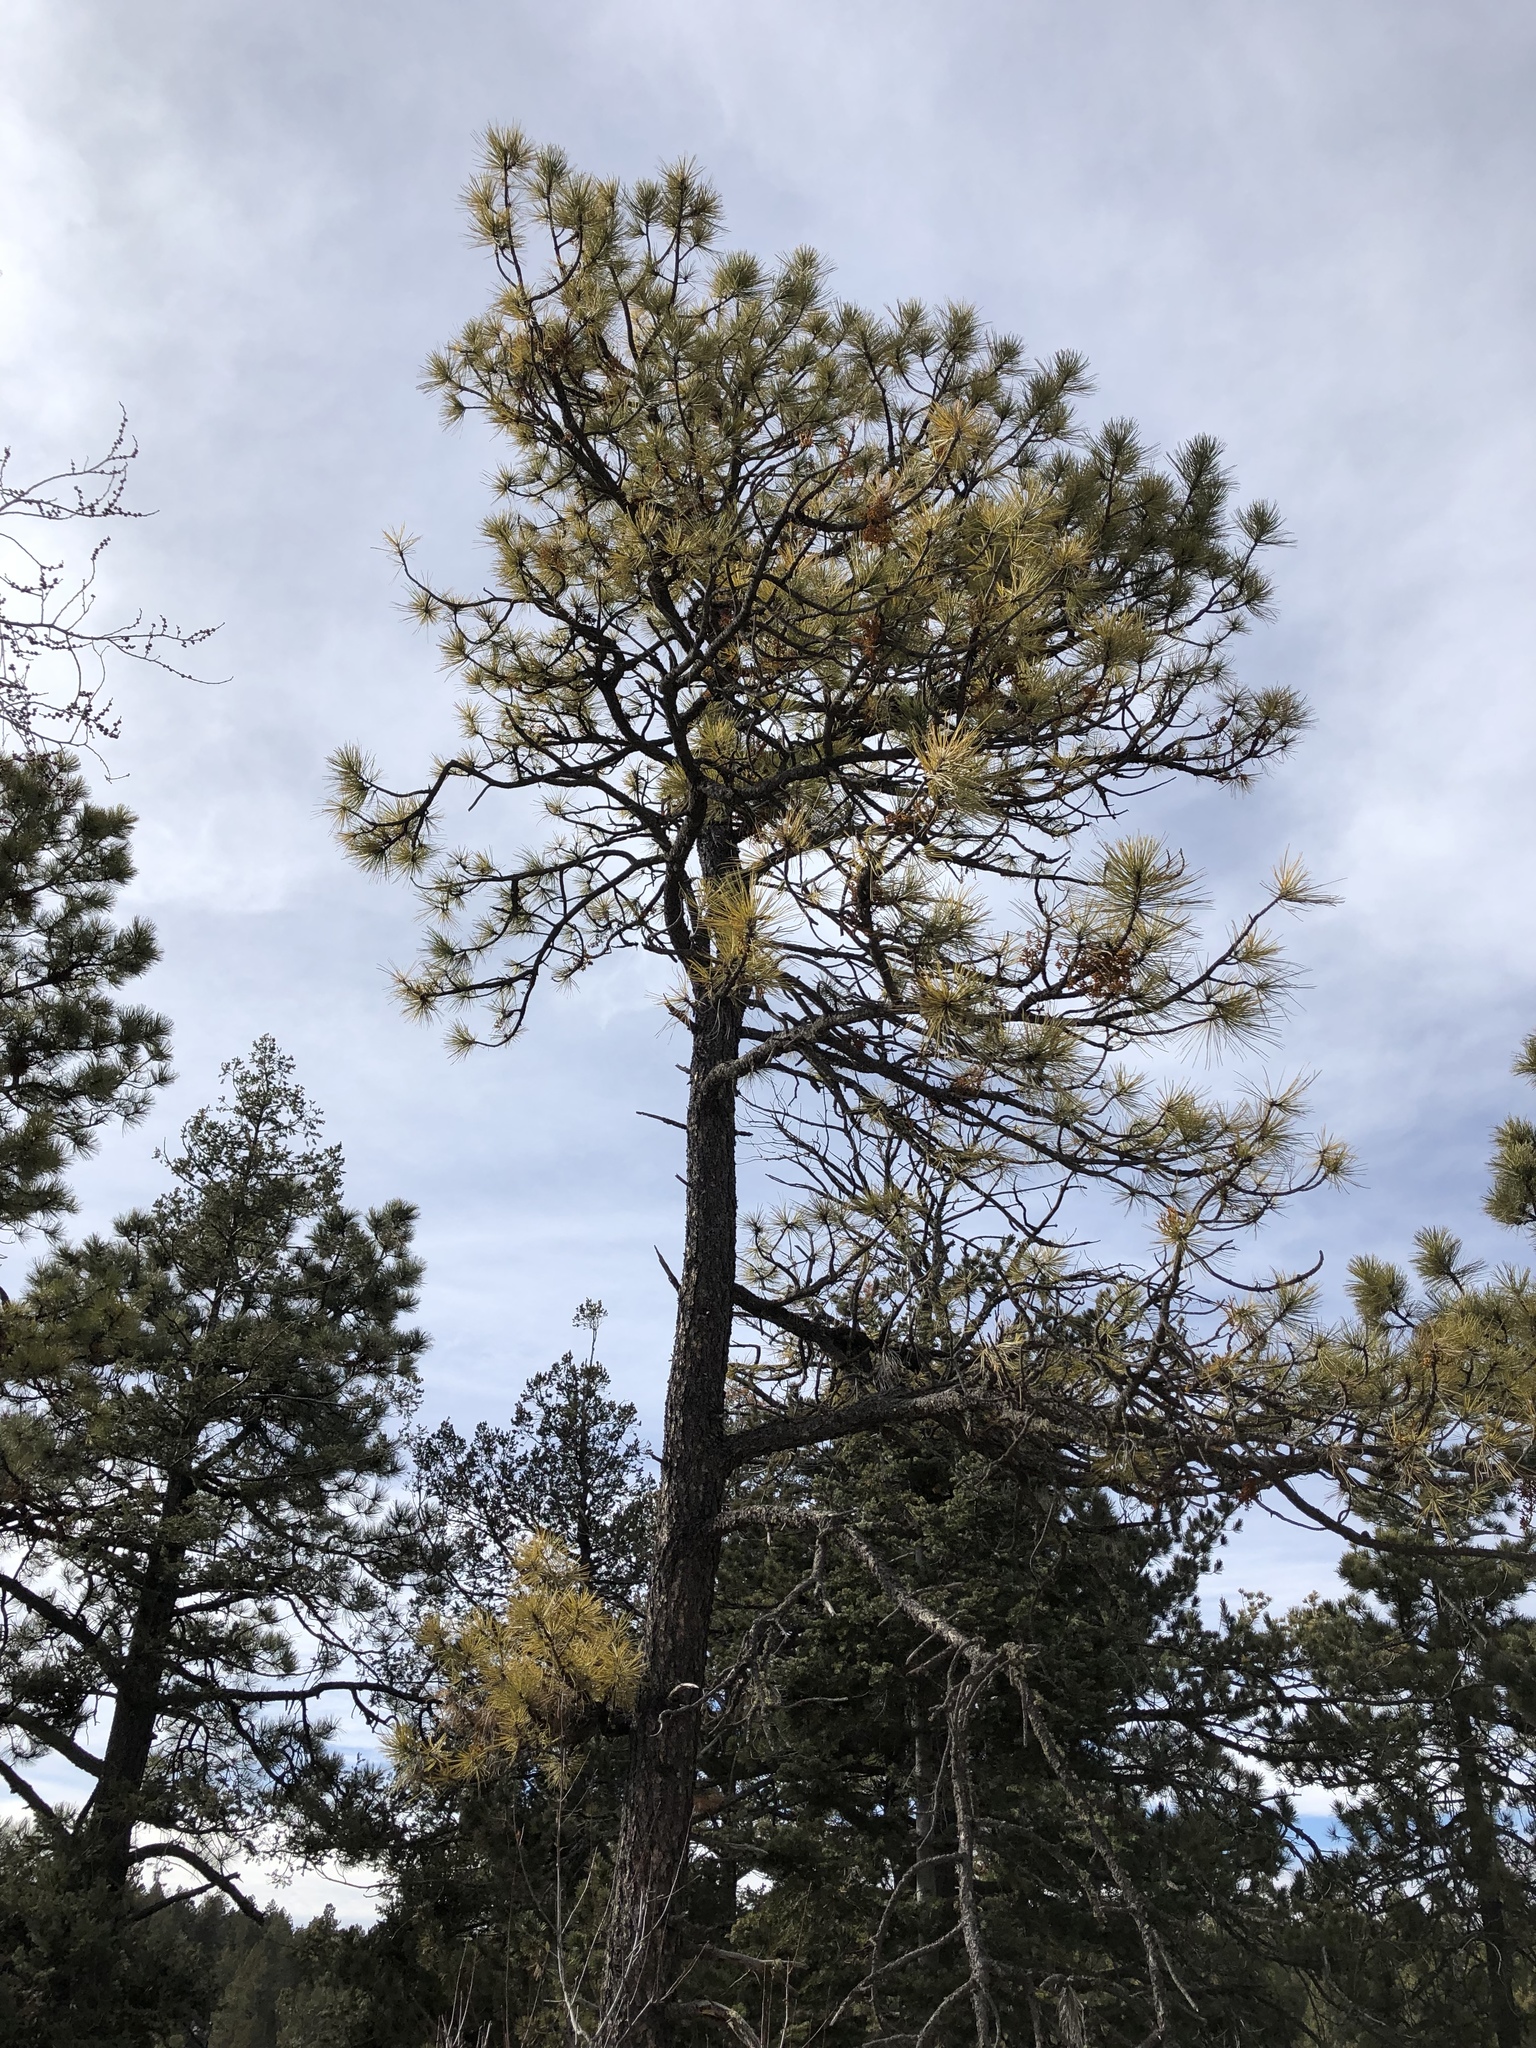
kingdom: Plantae
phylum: Tracheophyta
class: Pinopsida
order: Pinales
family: Pinaceae
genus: Pinus
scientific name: Pinus ponderosa
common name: Western yellow-pine
